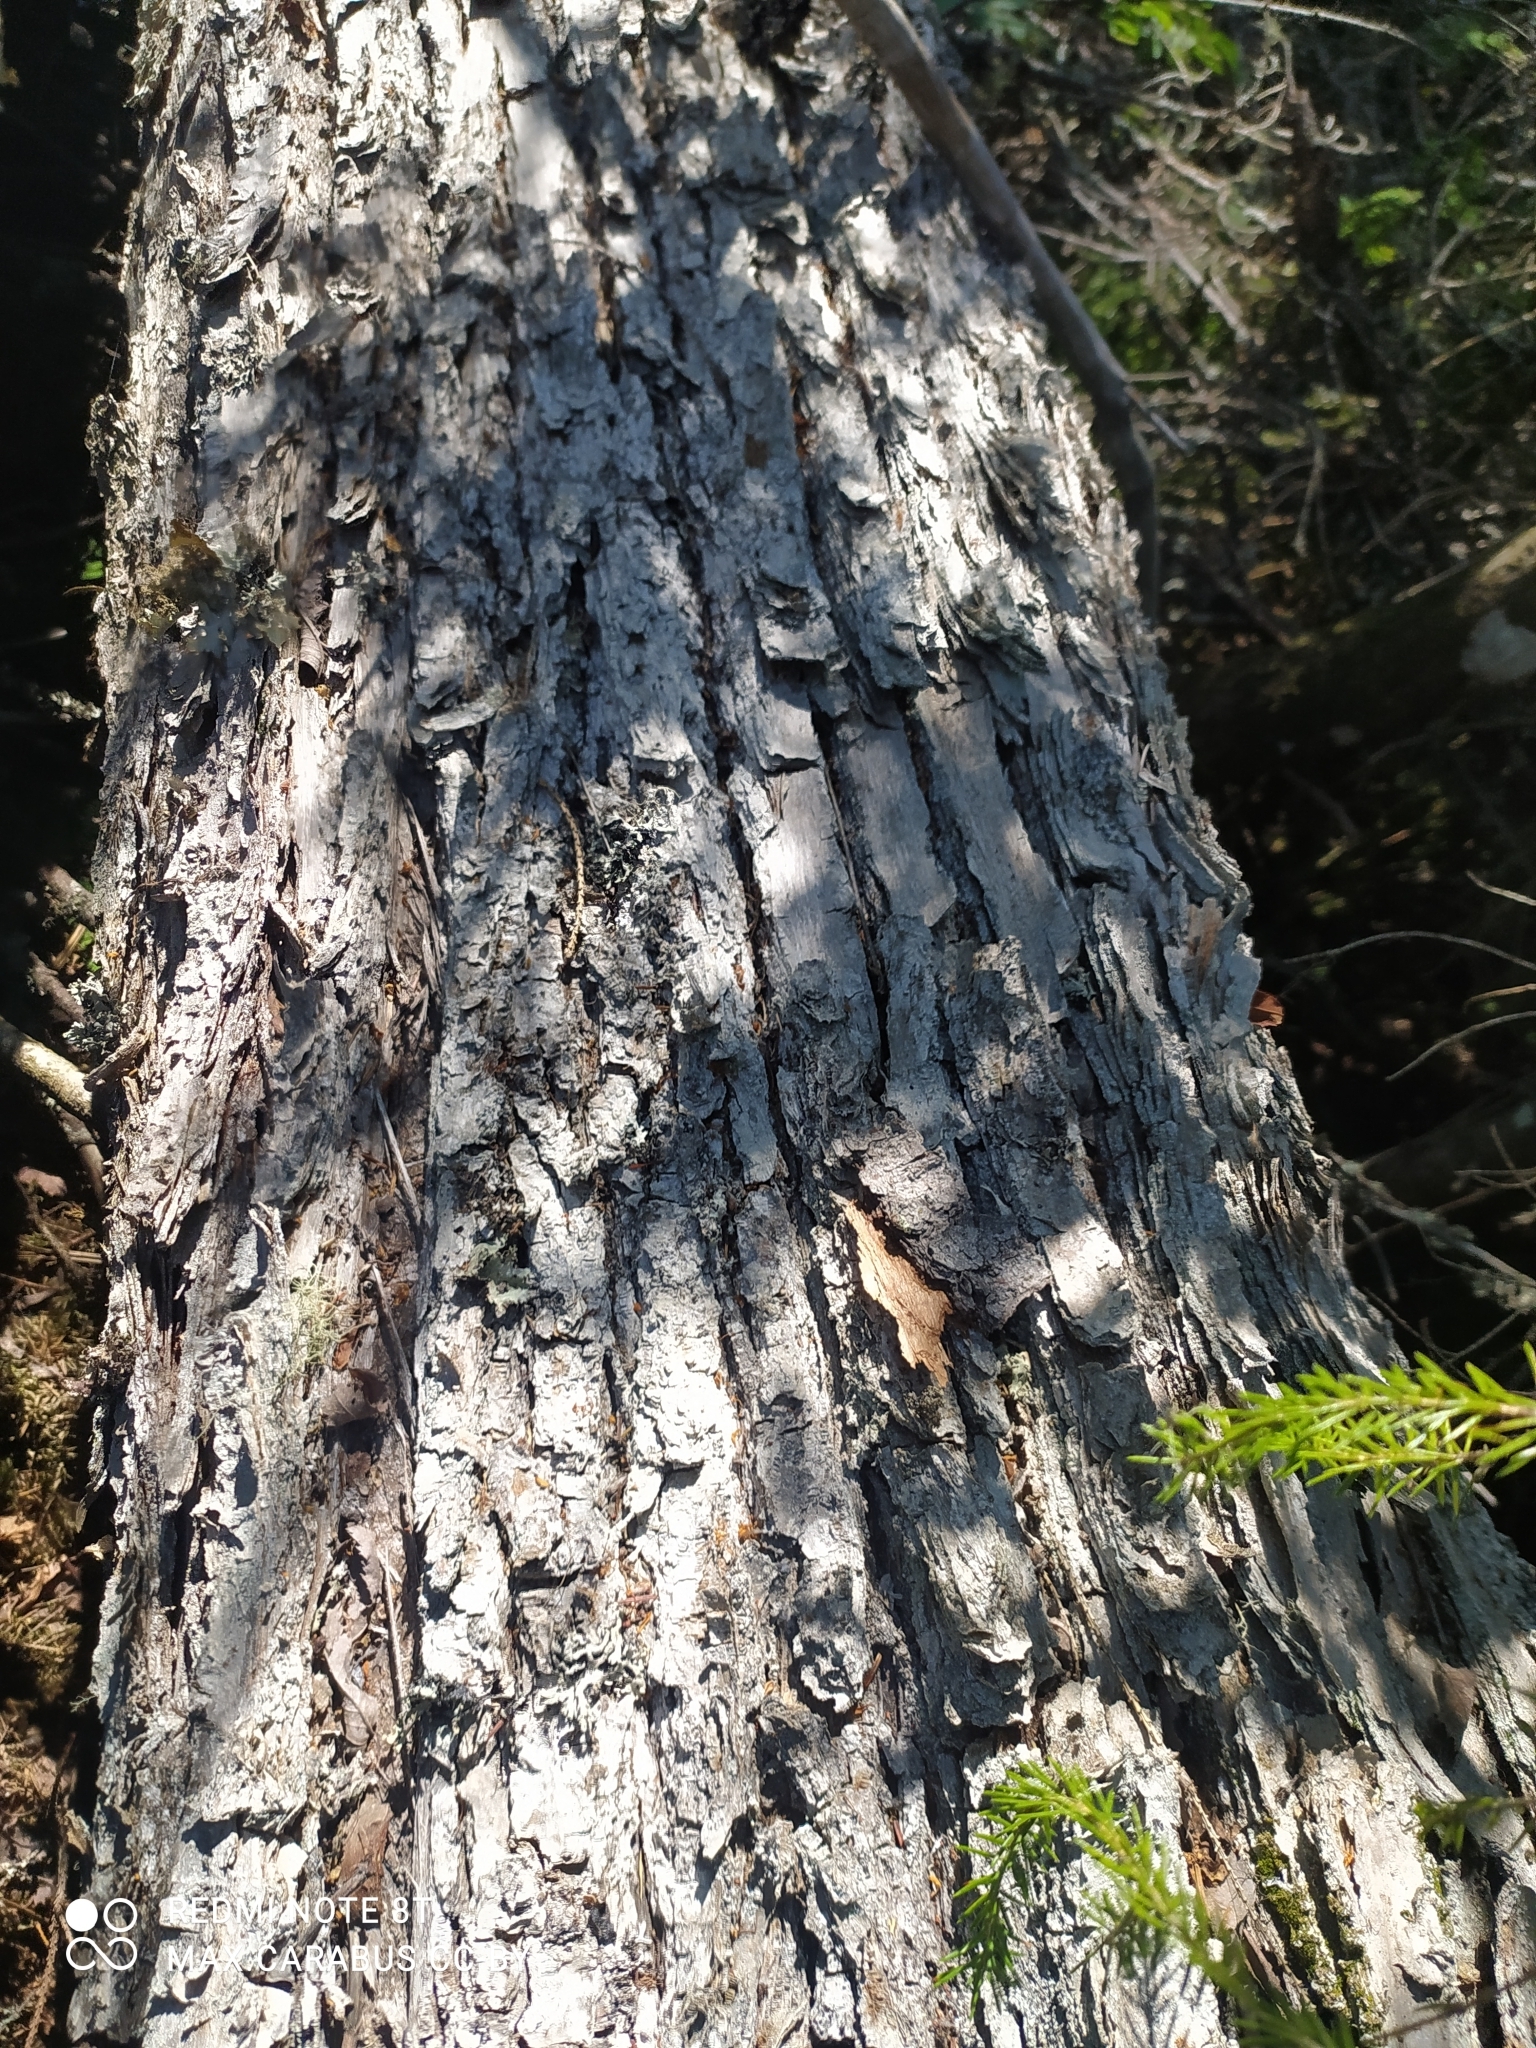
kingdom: Plantae
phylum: Tracheophyta
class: Pinopsida
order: Pinales
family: Pinaceae
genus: Pinus
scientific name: Pinus sylvestris
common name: Scots pine
